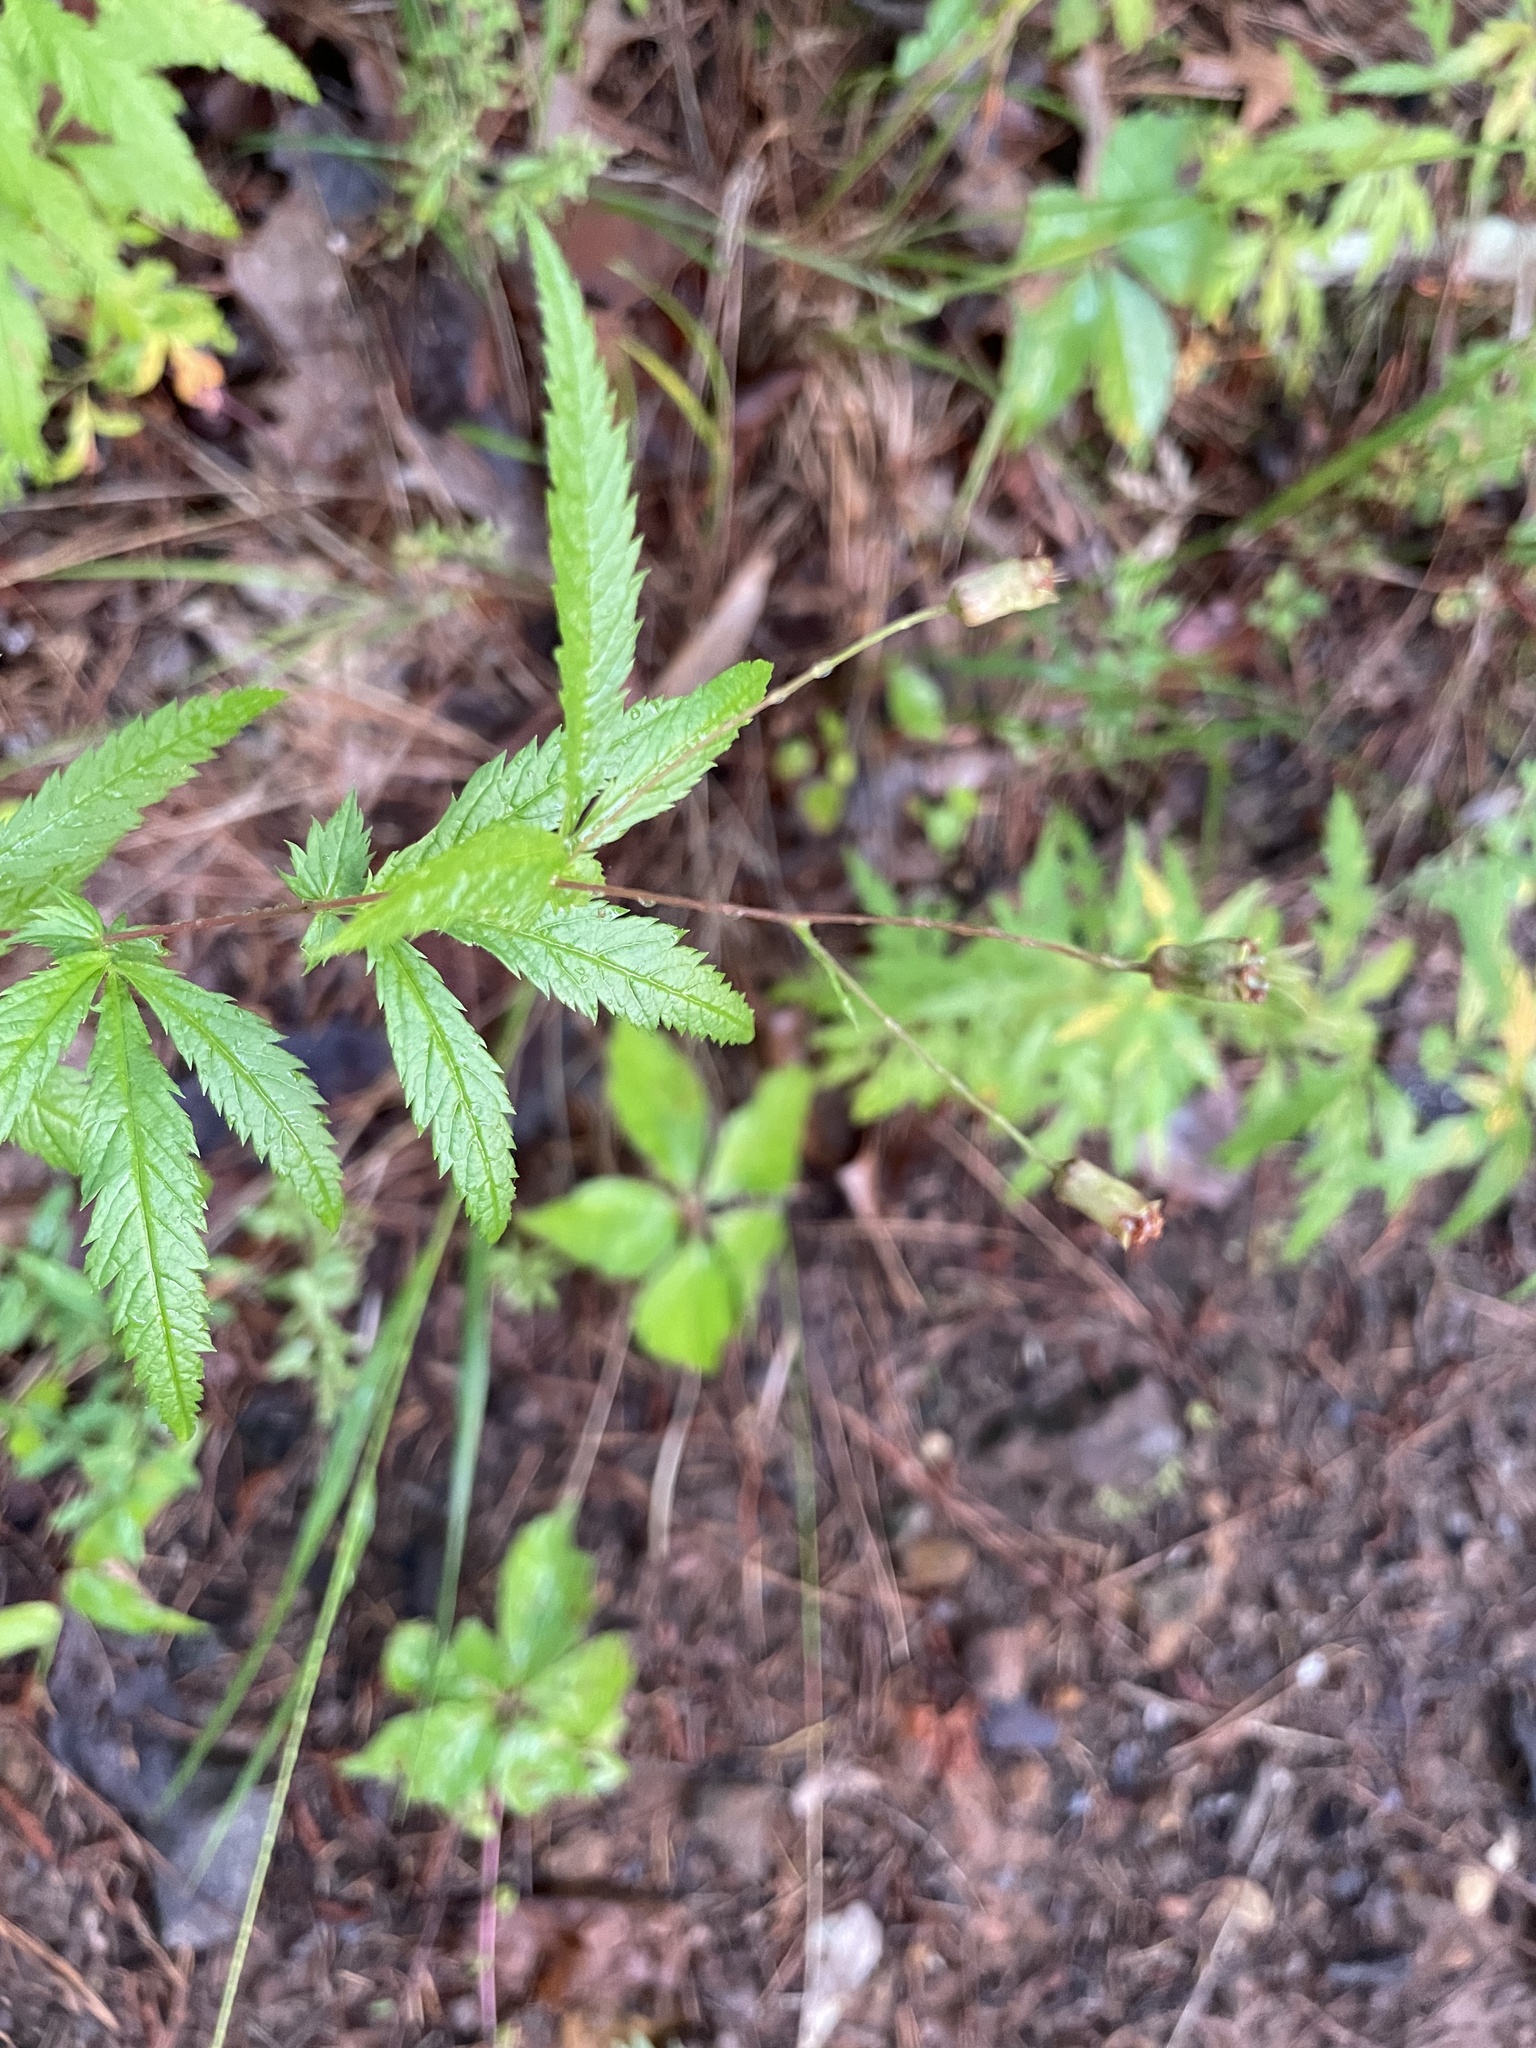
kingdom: Plantae
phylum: Tracheophyta
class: Magnoliopsida
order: Rosales
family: Rosaceae
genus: Gillenia
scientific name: Gillenia stipulata
